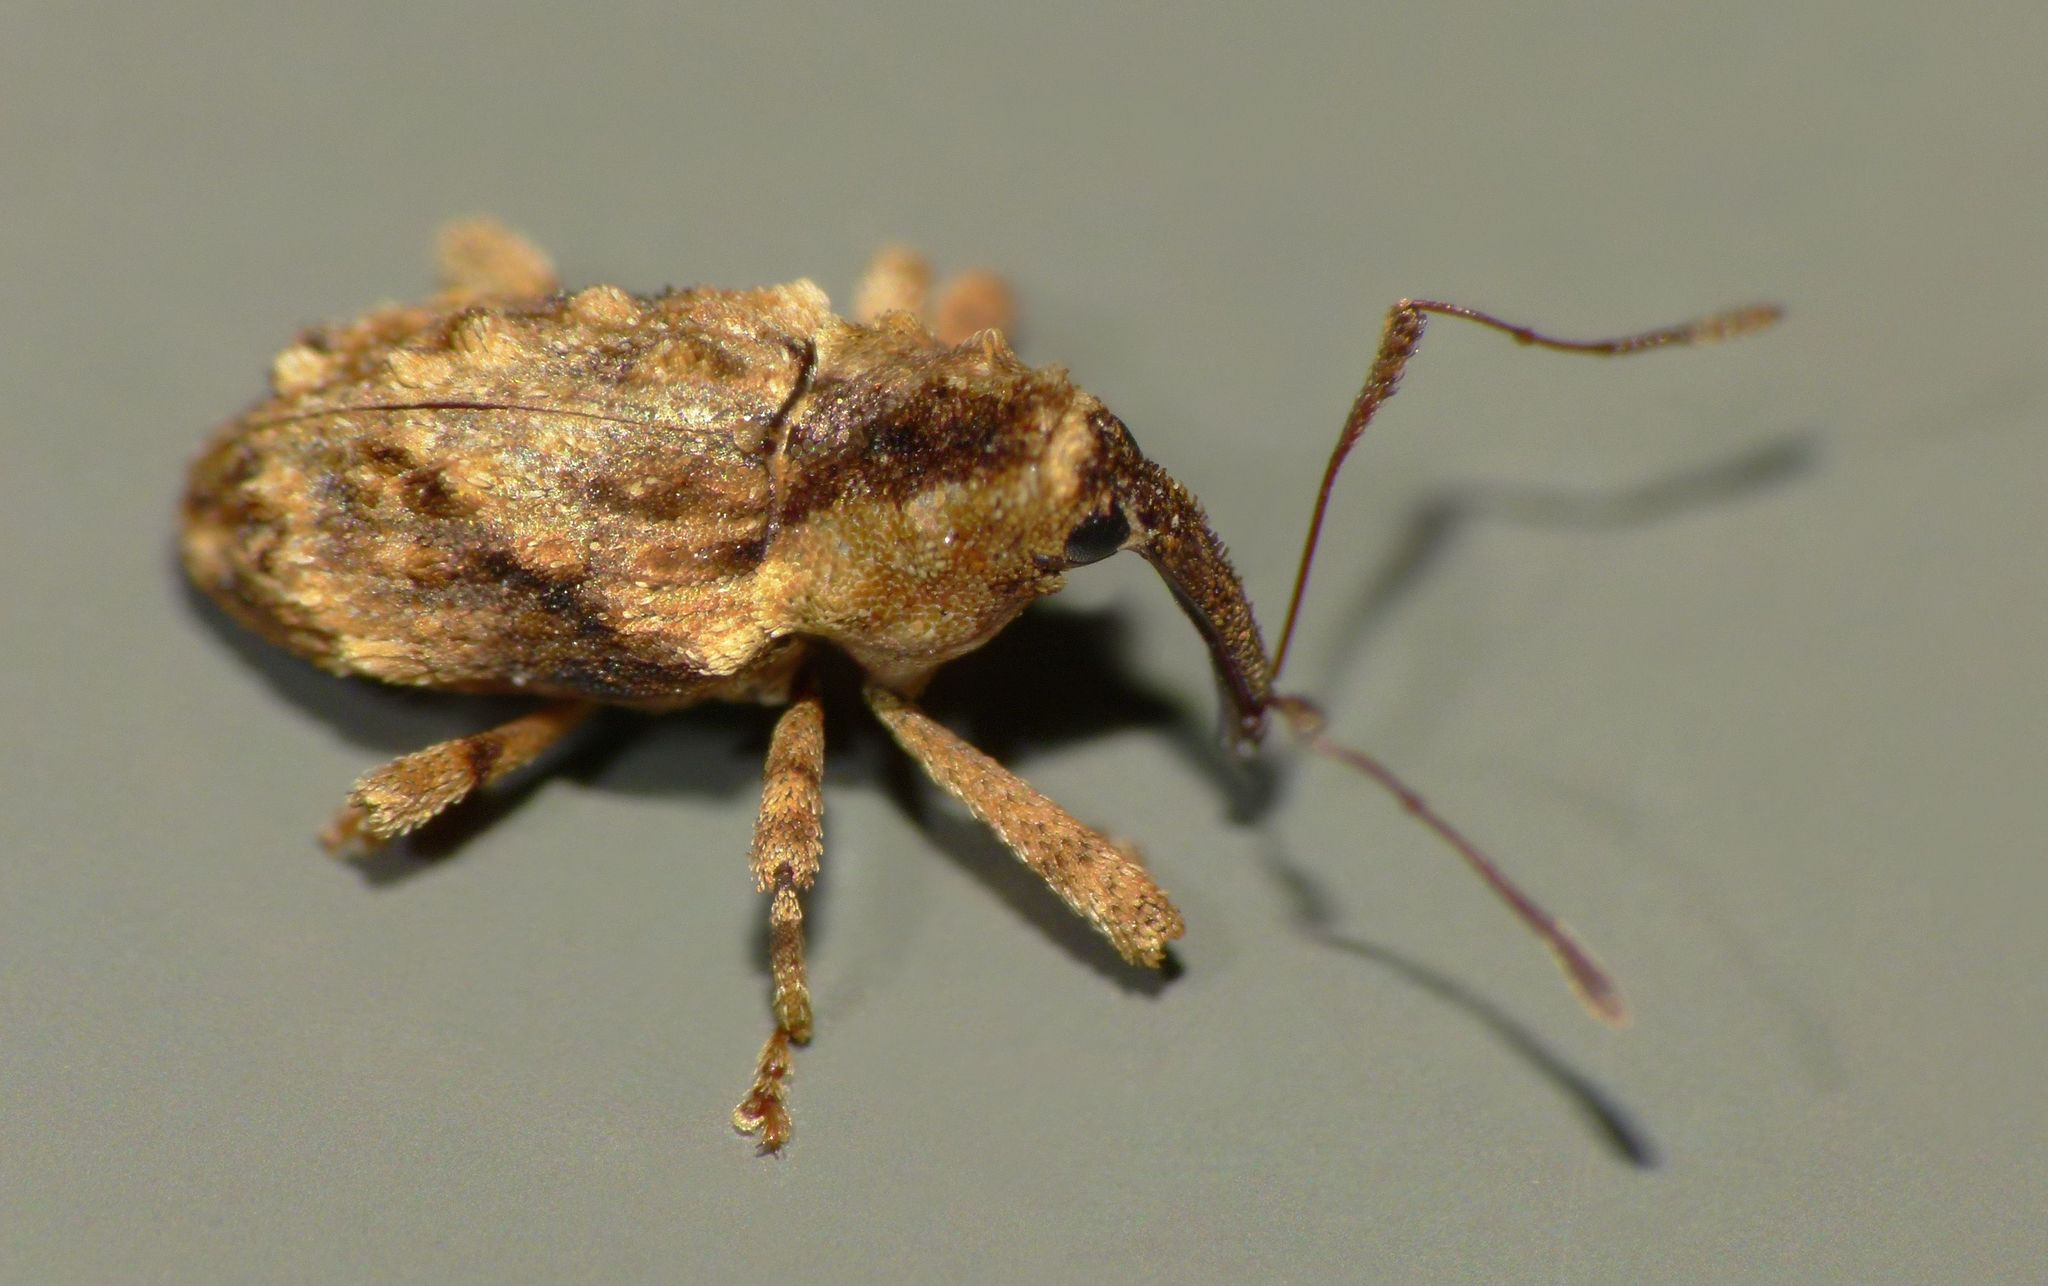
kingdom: Animalia
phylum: Arthropoda
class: Insecta
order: Coleoptera
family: Curculionidae
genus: Mecistostylus
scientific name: Mecistostylus douei
